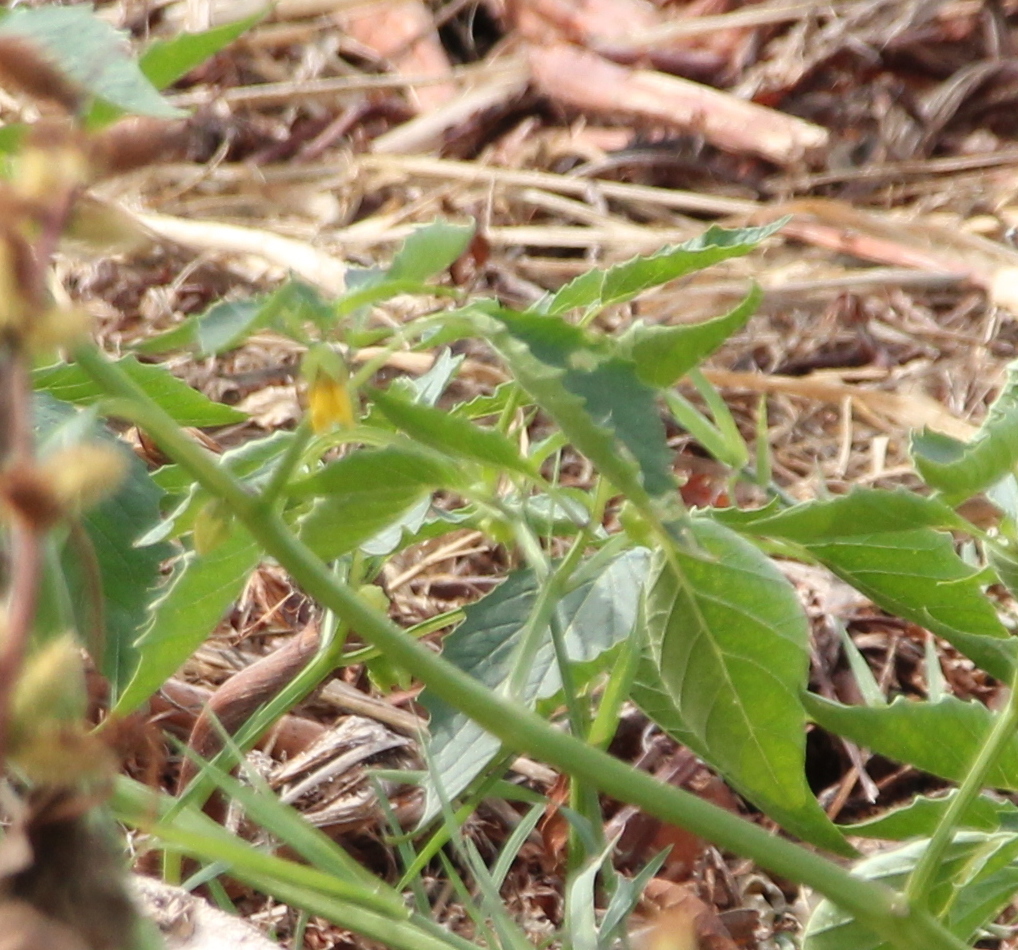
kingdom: Plantae
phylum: Tracheophyta
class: Magnoliopsida
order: Solanales
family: Solanaceae
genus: Physalis
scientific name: Physalis philadelphica
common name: Husk-tomato
